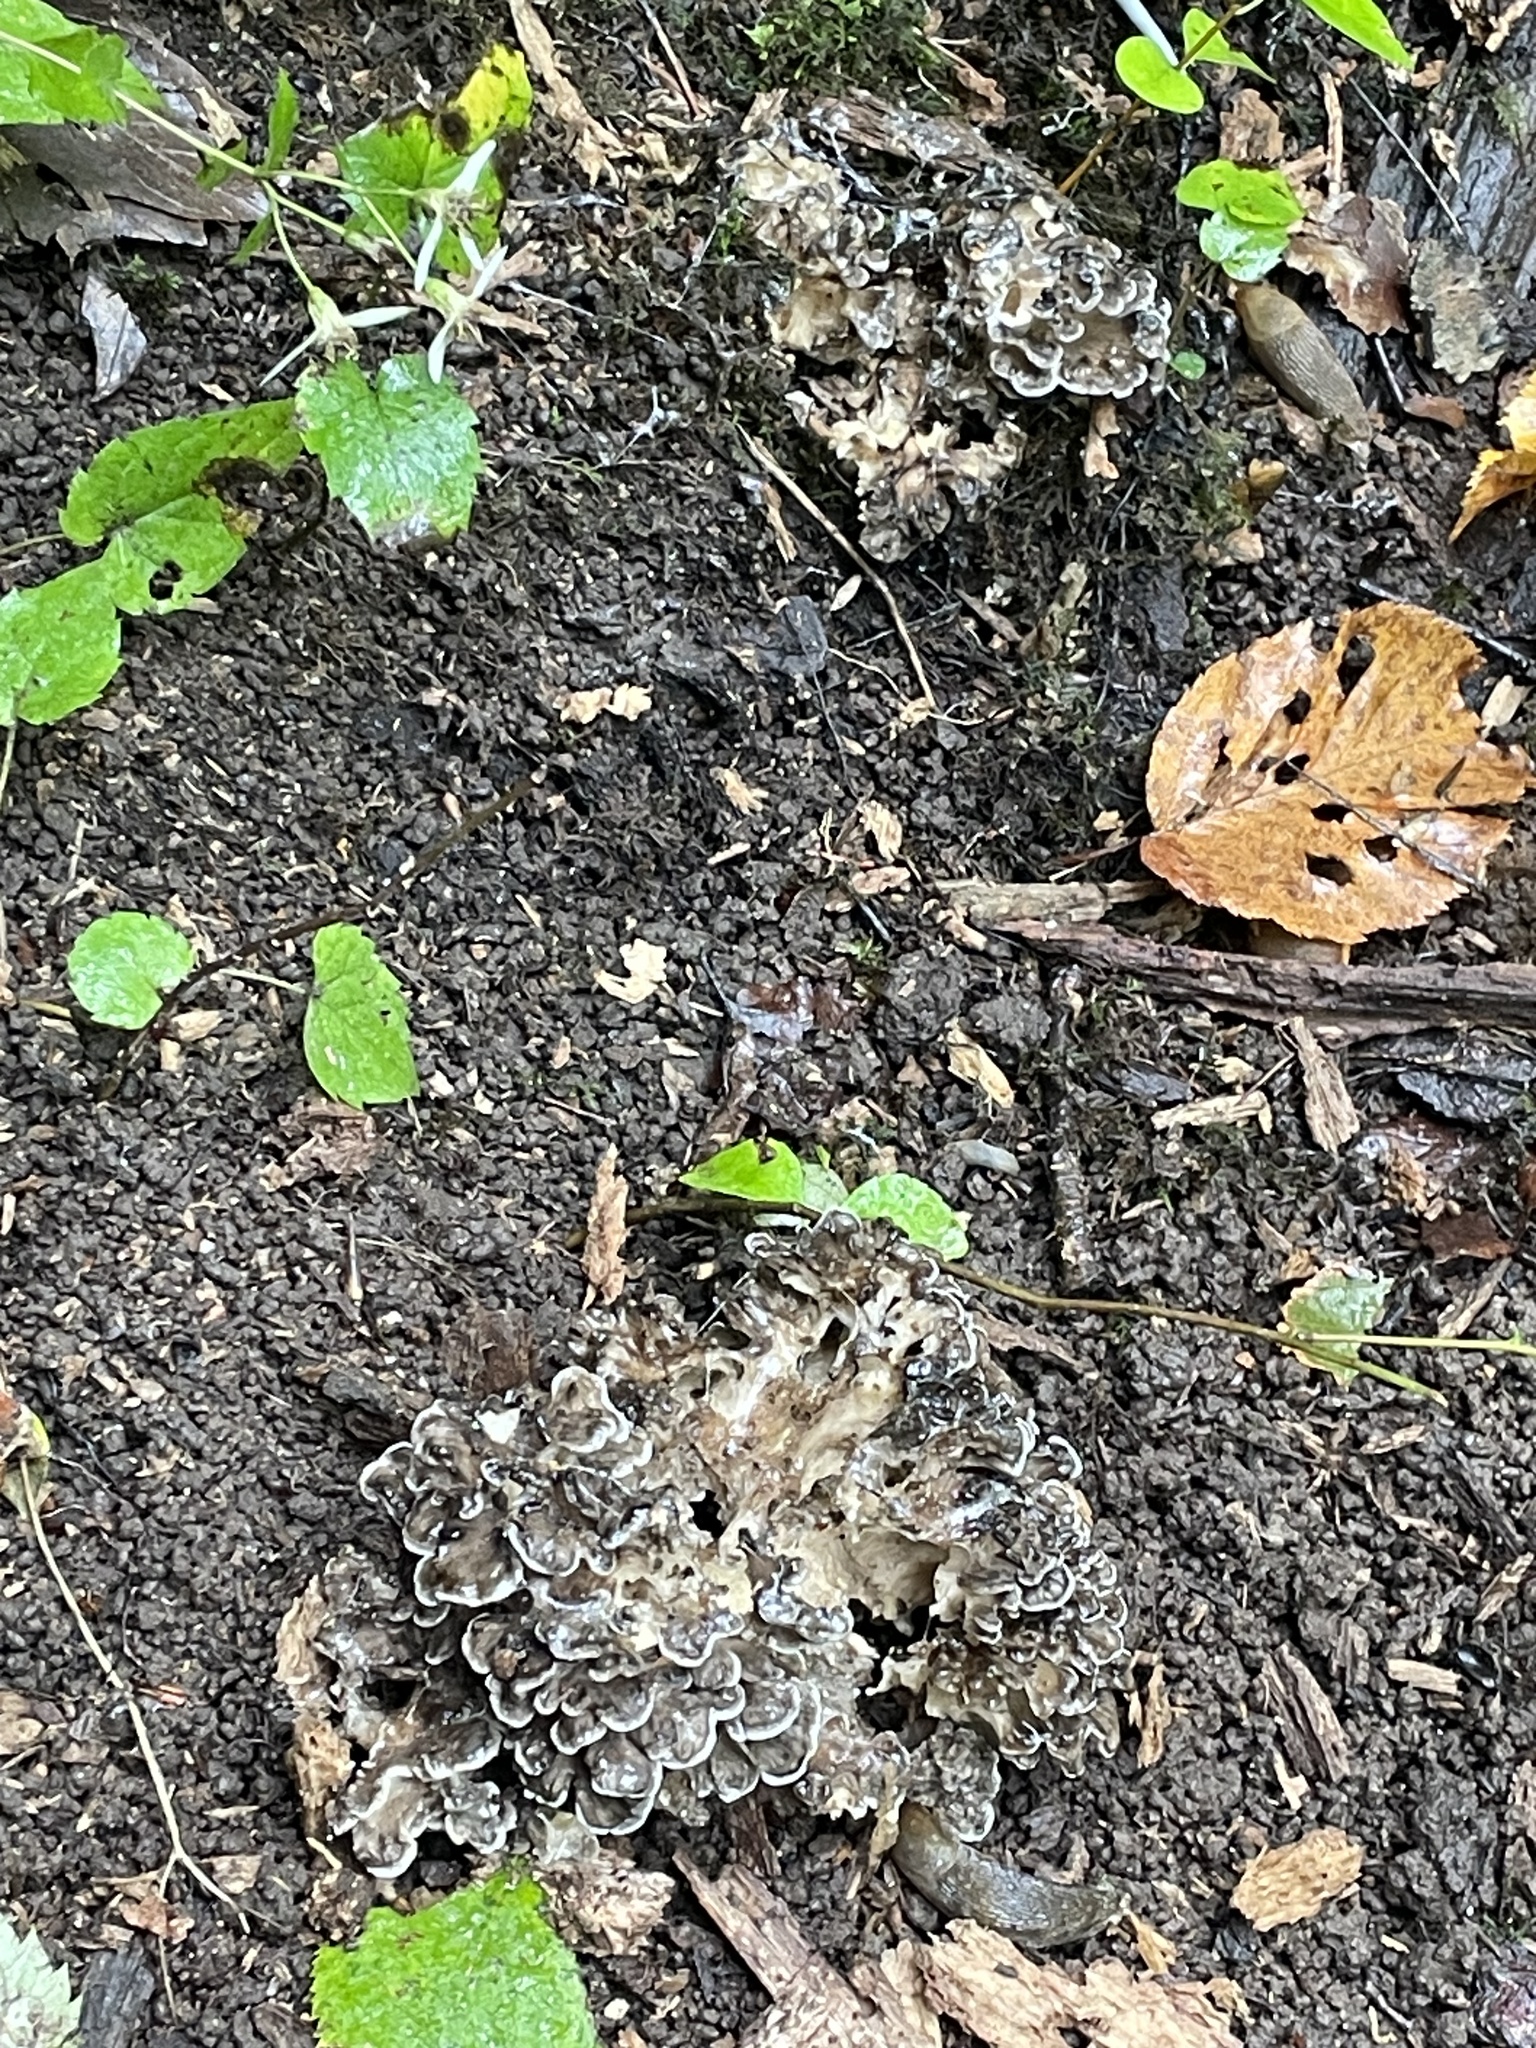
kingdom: Fungi
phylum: Basidiomycota
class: Agaricomycetes
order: Polyporales
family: Grifolaceae
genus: Grifola
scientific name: Grifola frondosa
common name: Hen of the woods
